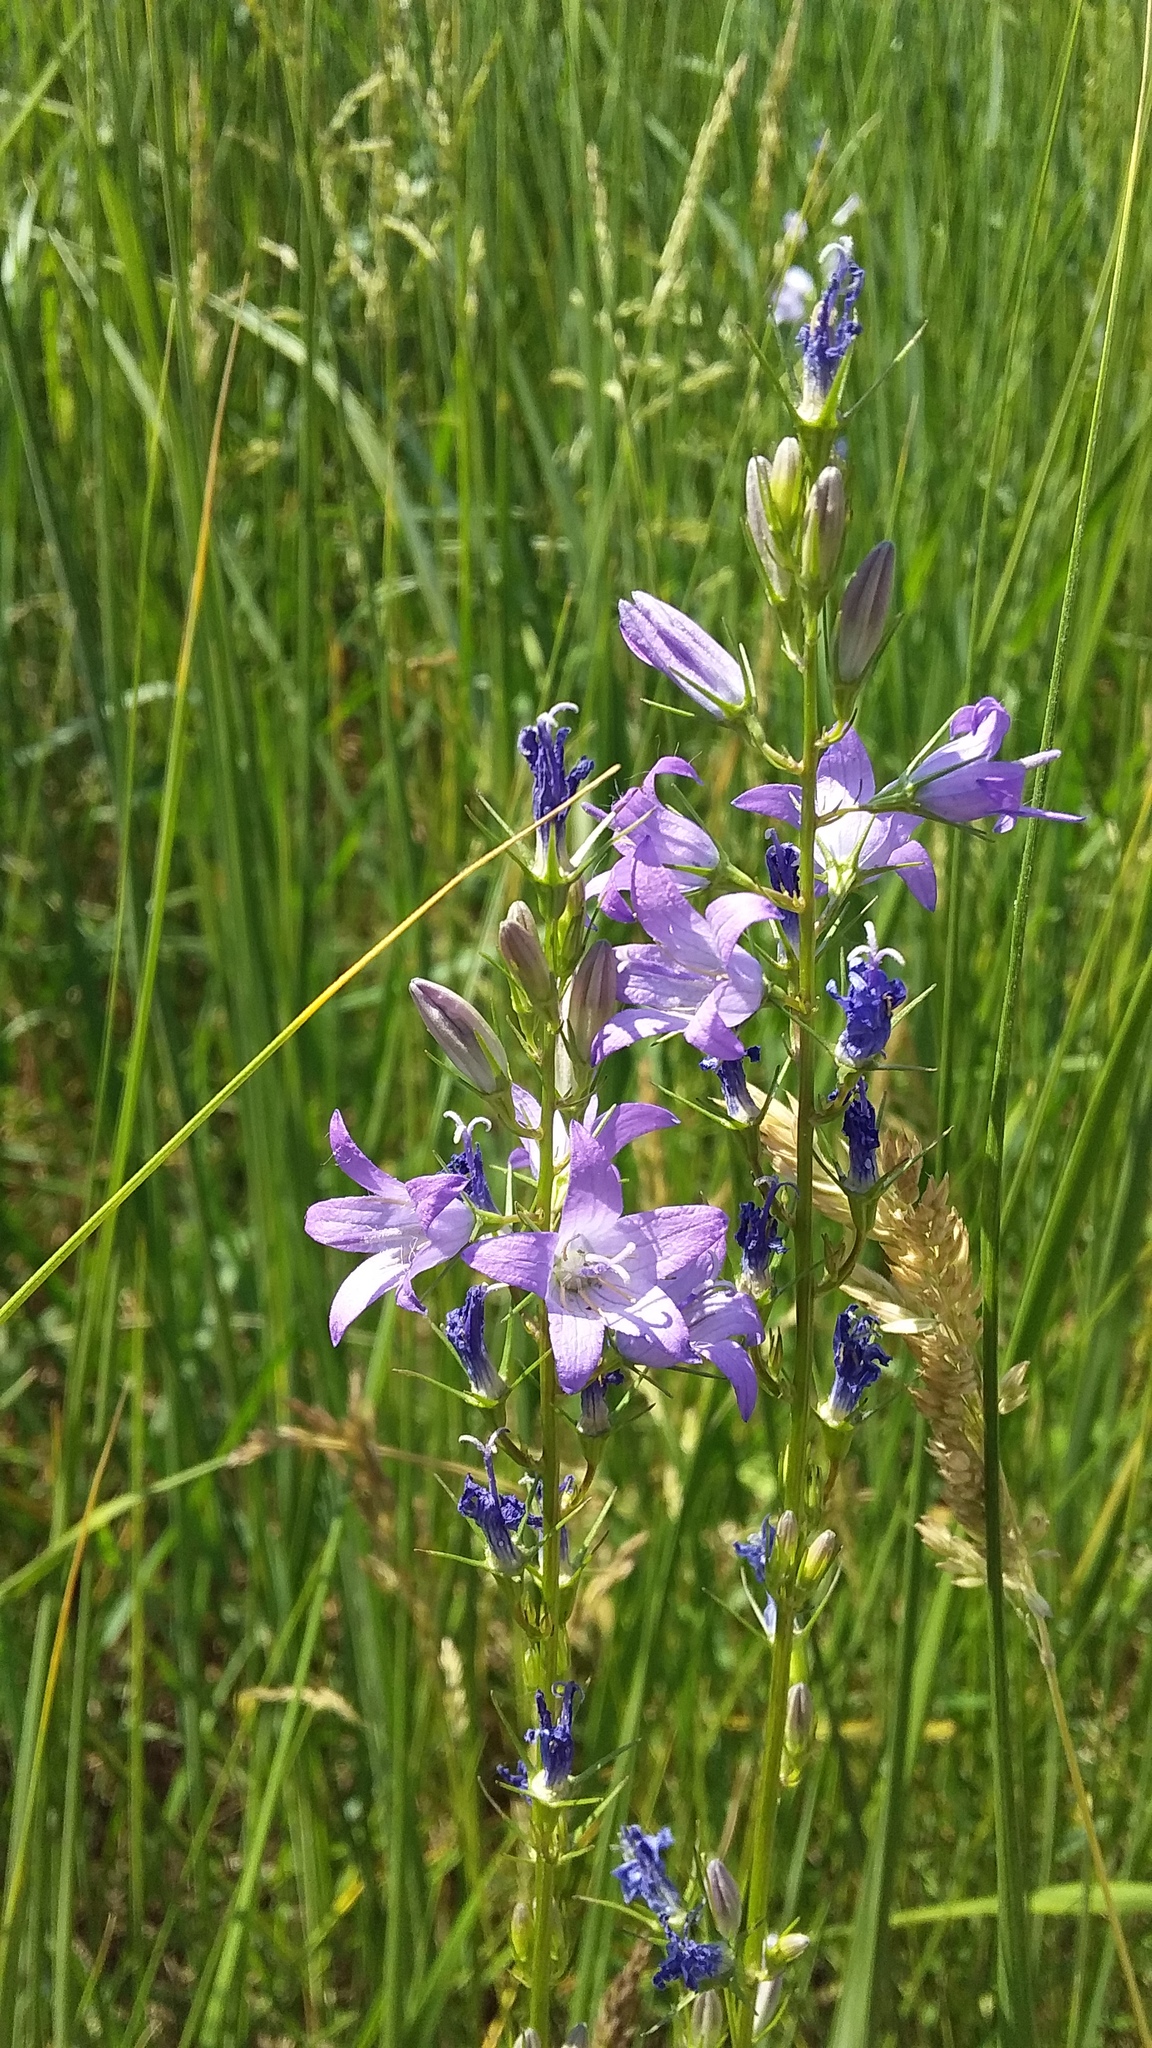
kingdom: Plantae
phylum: Tracheophyta
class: Magnoliopsida
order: Asterales
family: Campanulaceae
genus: Campanula
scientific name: Campanula rapunculus
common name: Rampion bellflower
